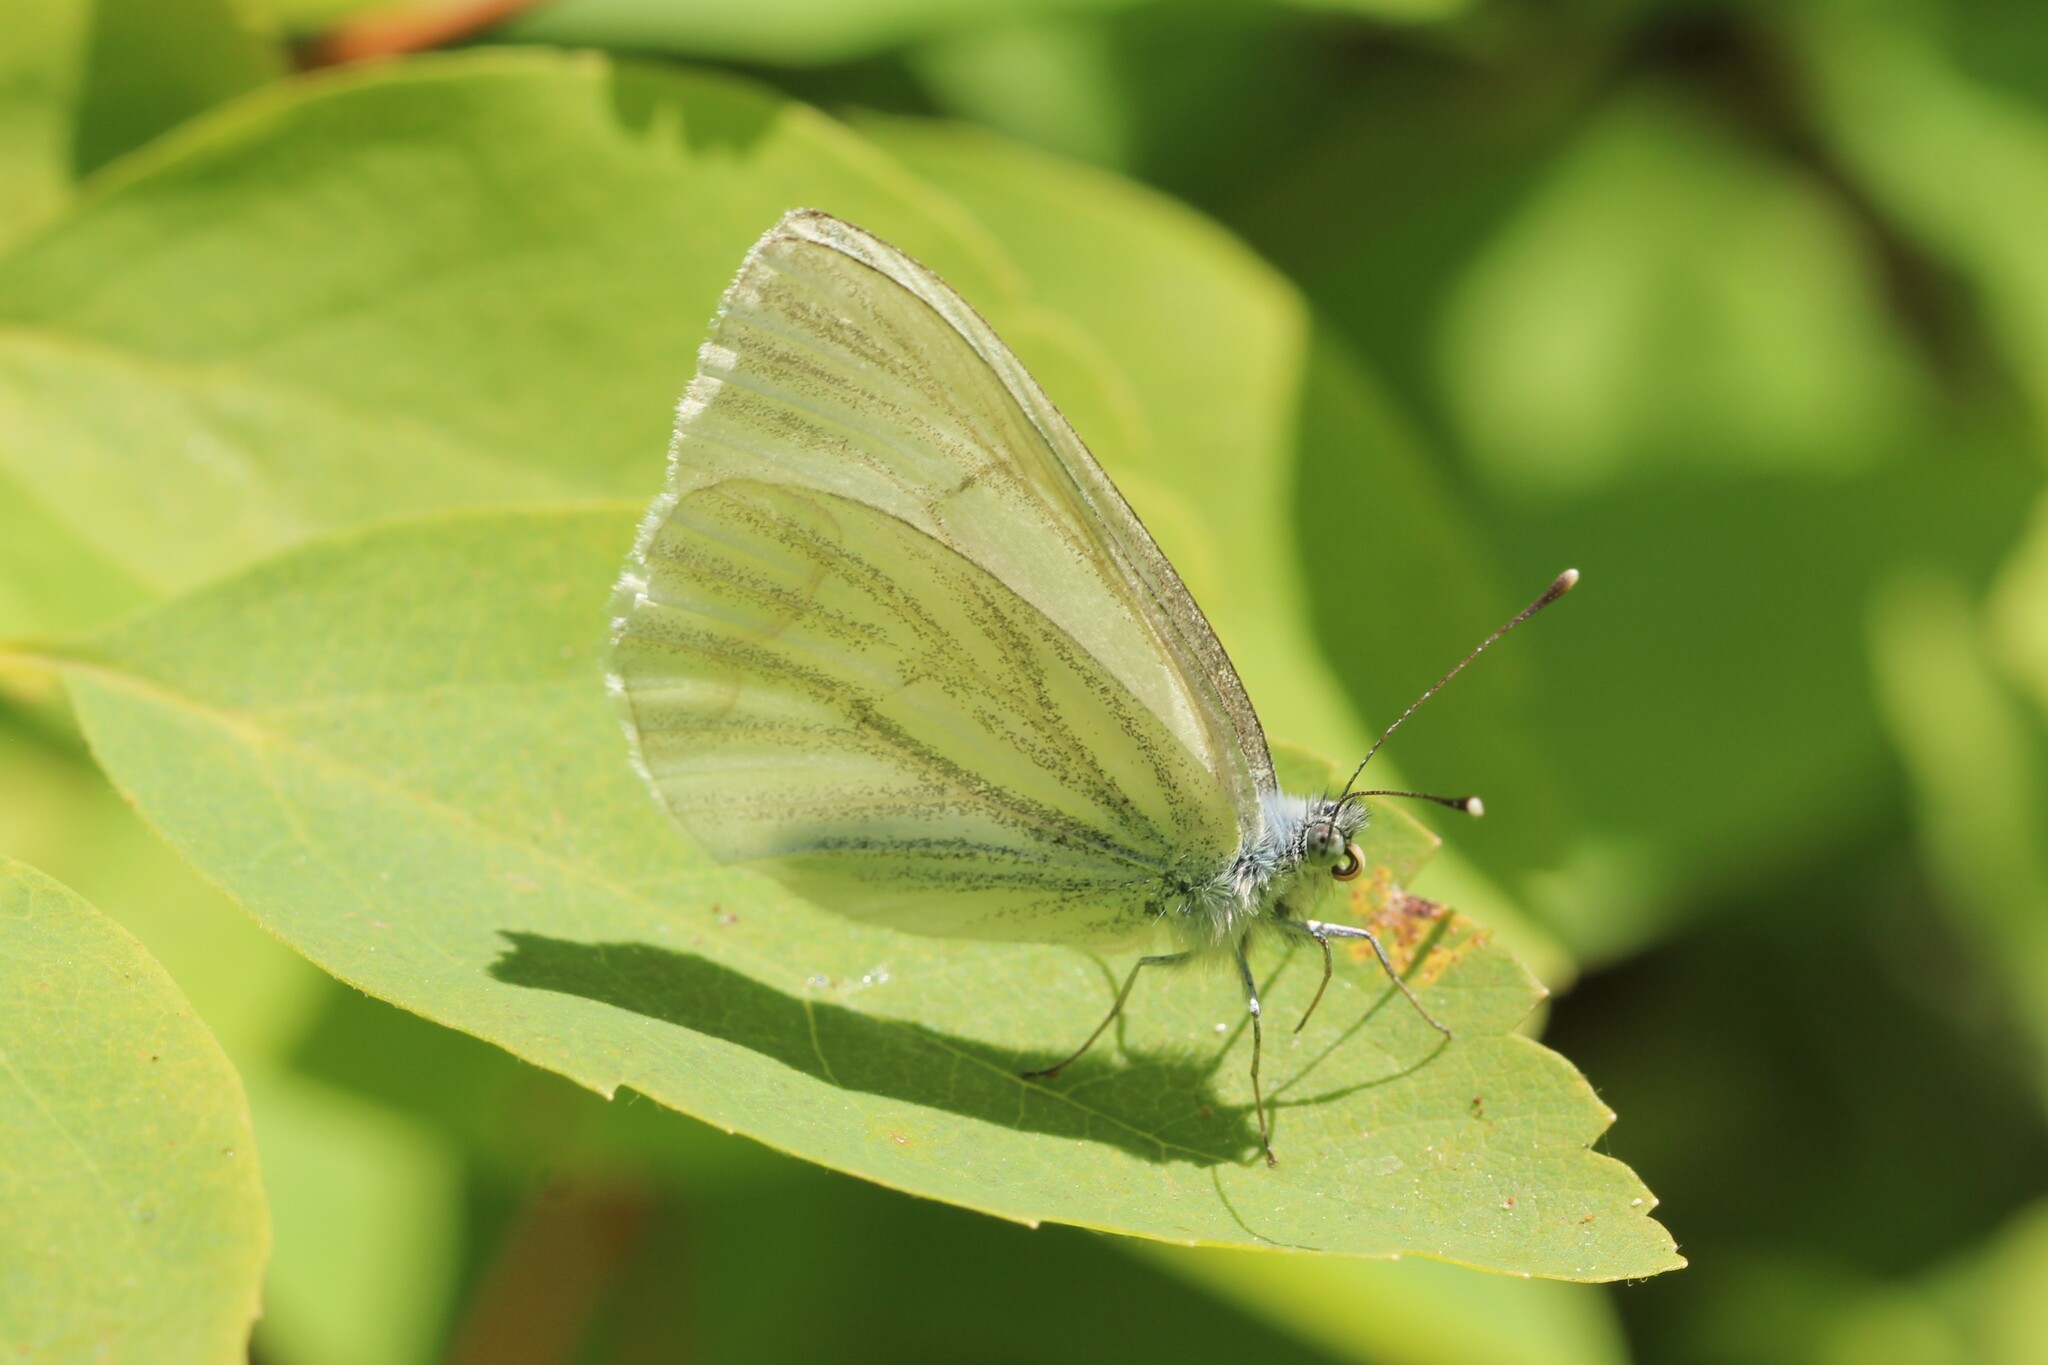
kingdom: Animalia
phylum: Arthropoda
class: Insecta
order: Lepidoptera
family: Pieridae
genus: Pieris
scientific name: Pieris marginalis
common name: Margined white
